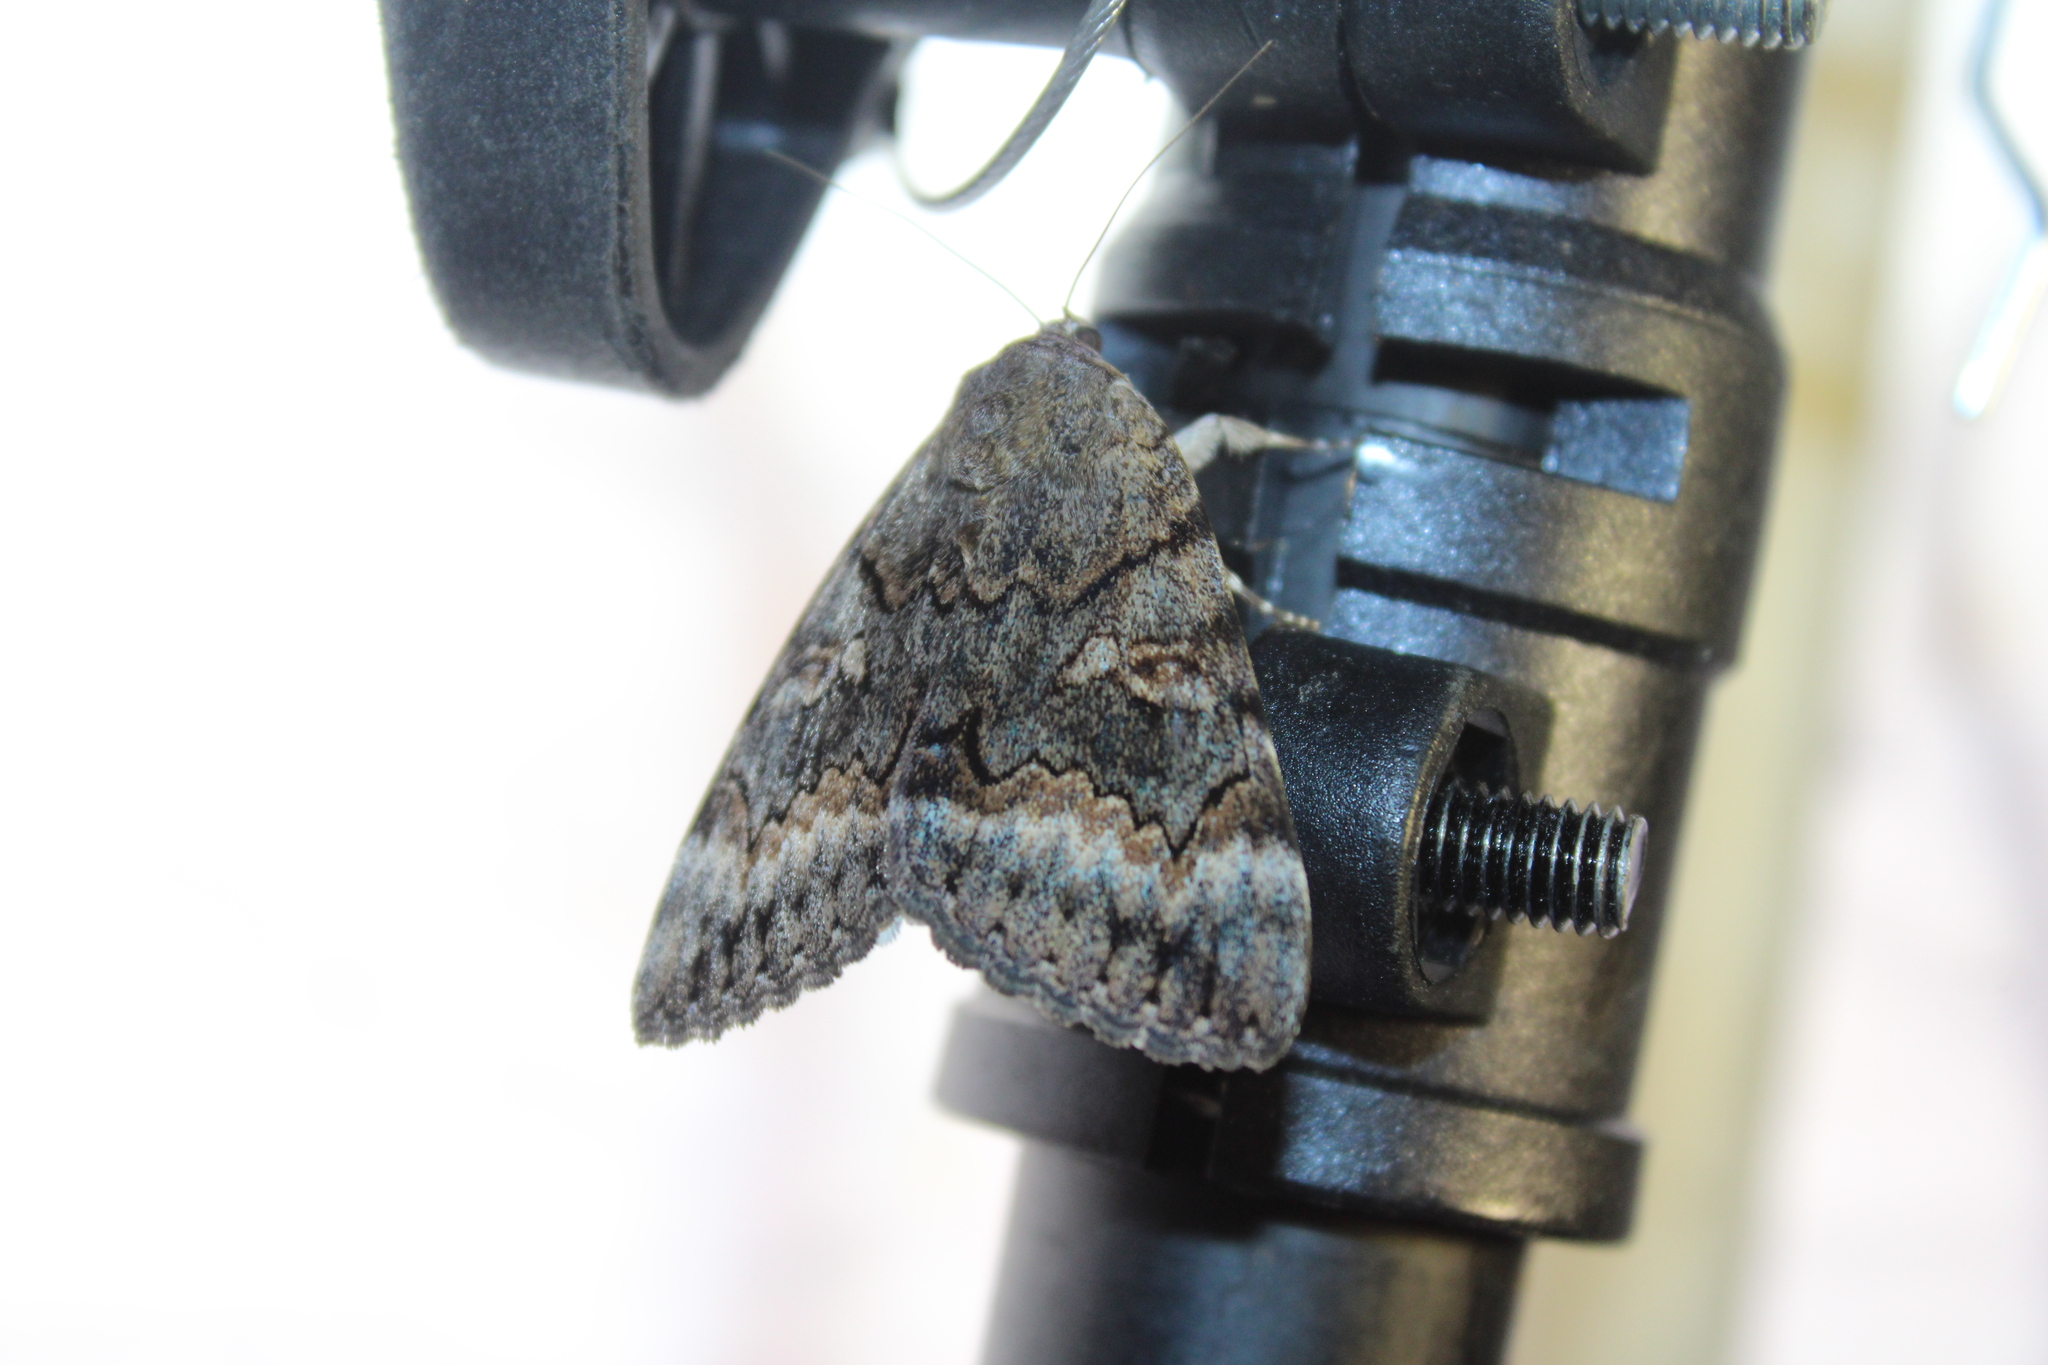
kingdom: Animalia
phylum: Arthropoda
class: Insecta
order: Lepidoptera
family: Erebidae
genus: Catocala
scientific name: Catocala epione
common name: Epione underwing
